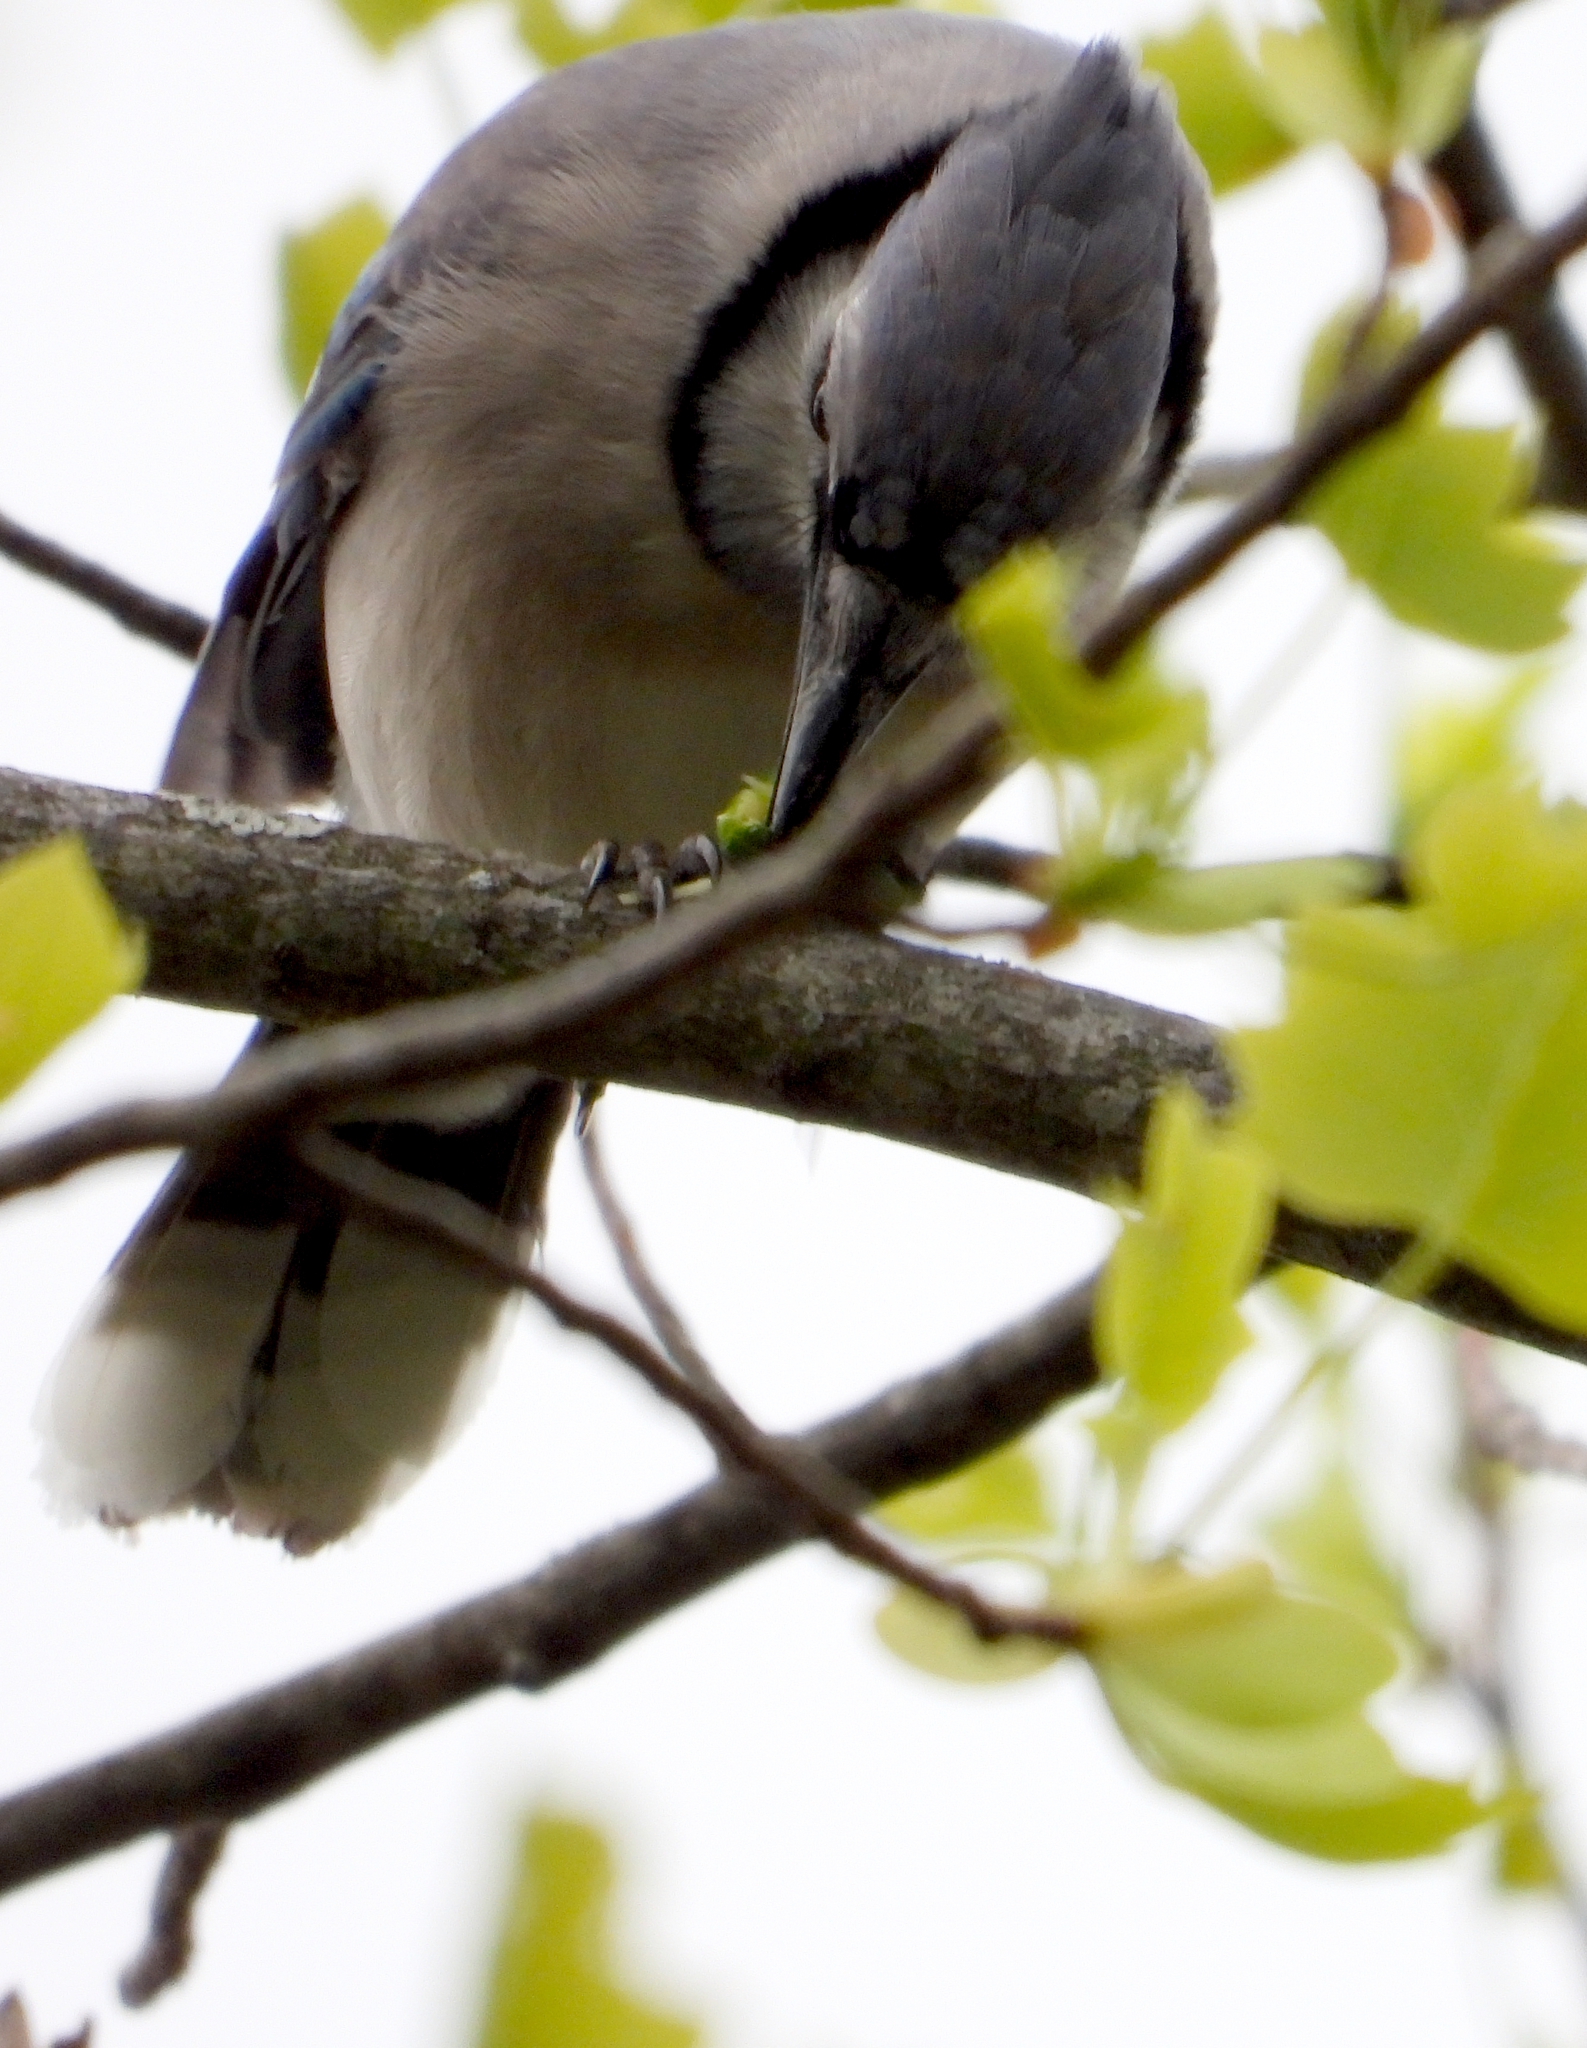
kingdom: Animalia
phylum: Chordata
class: Aves
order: Passeriformes
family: Corvidae
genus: Cyanocitta
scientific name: Cyanocitta cristata
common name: Blue jay
